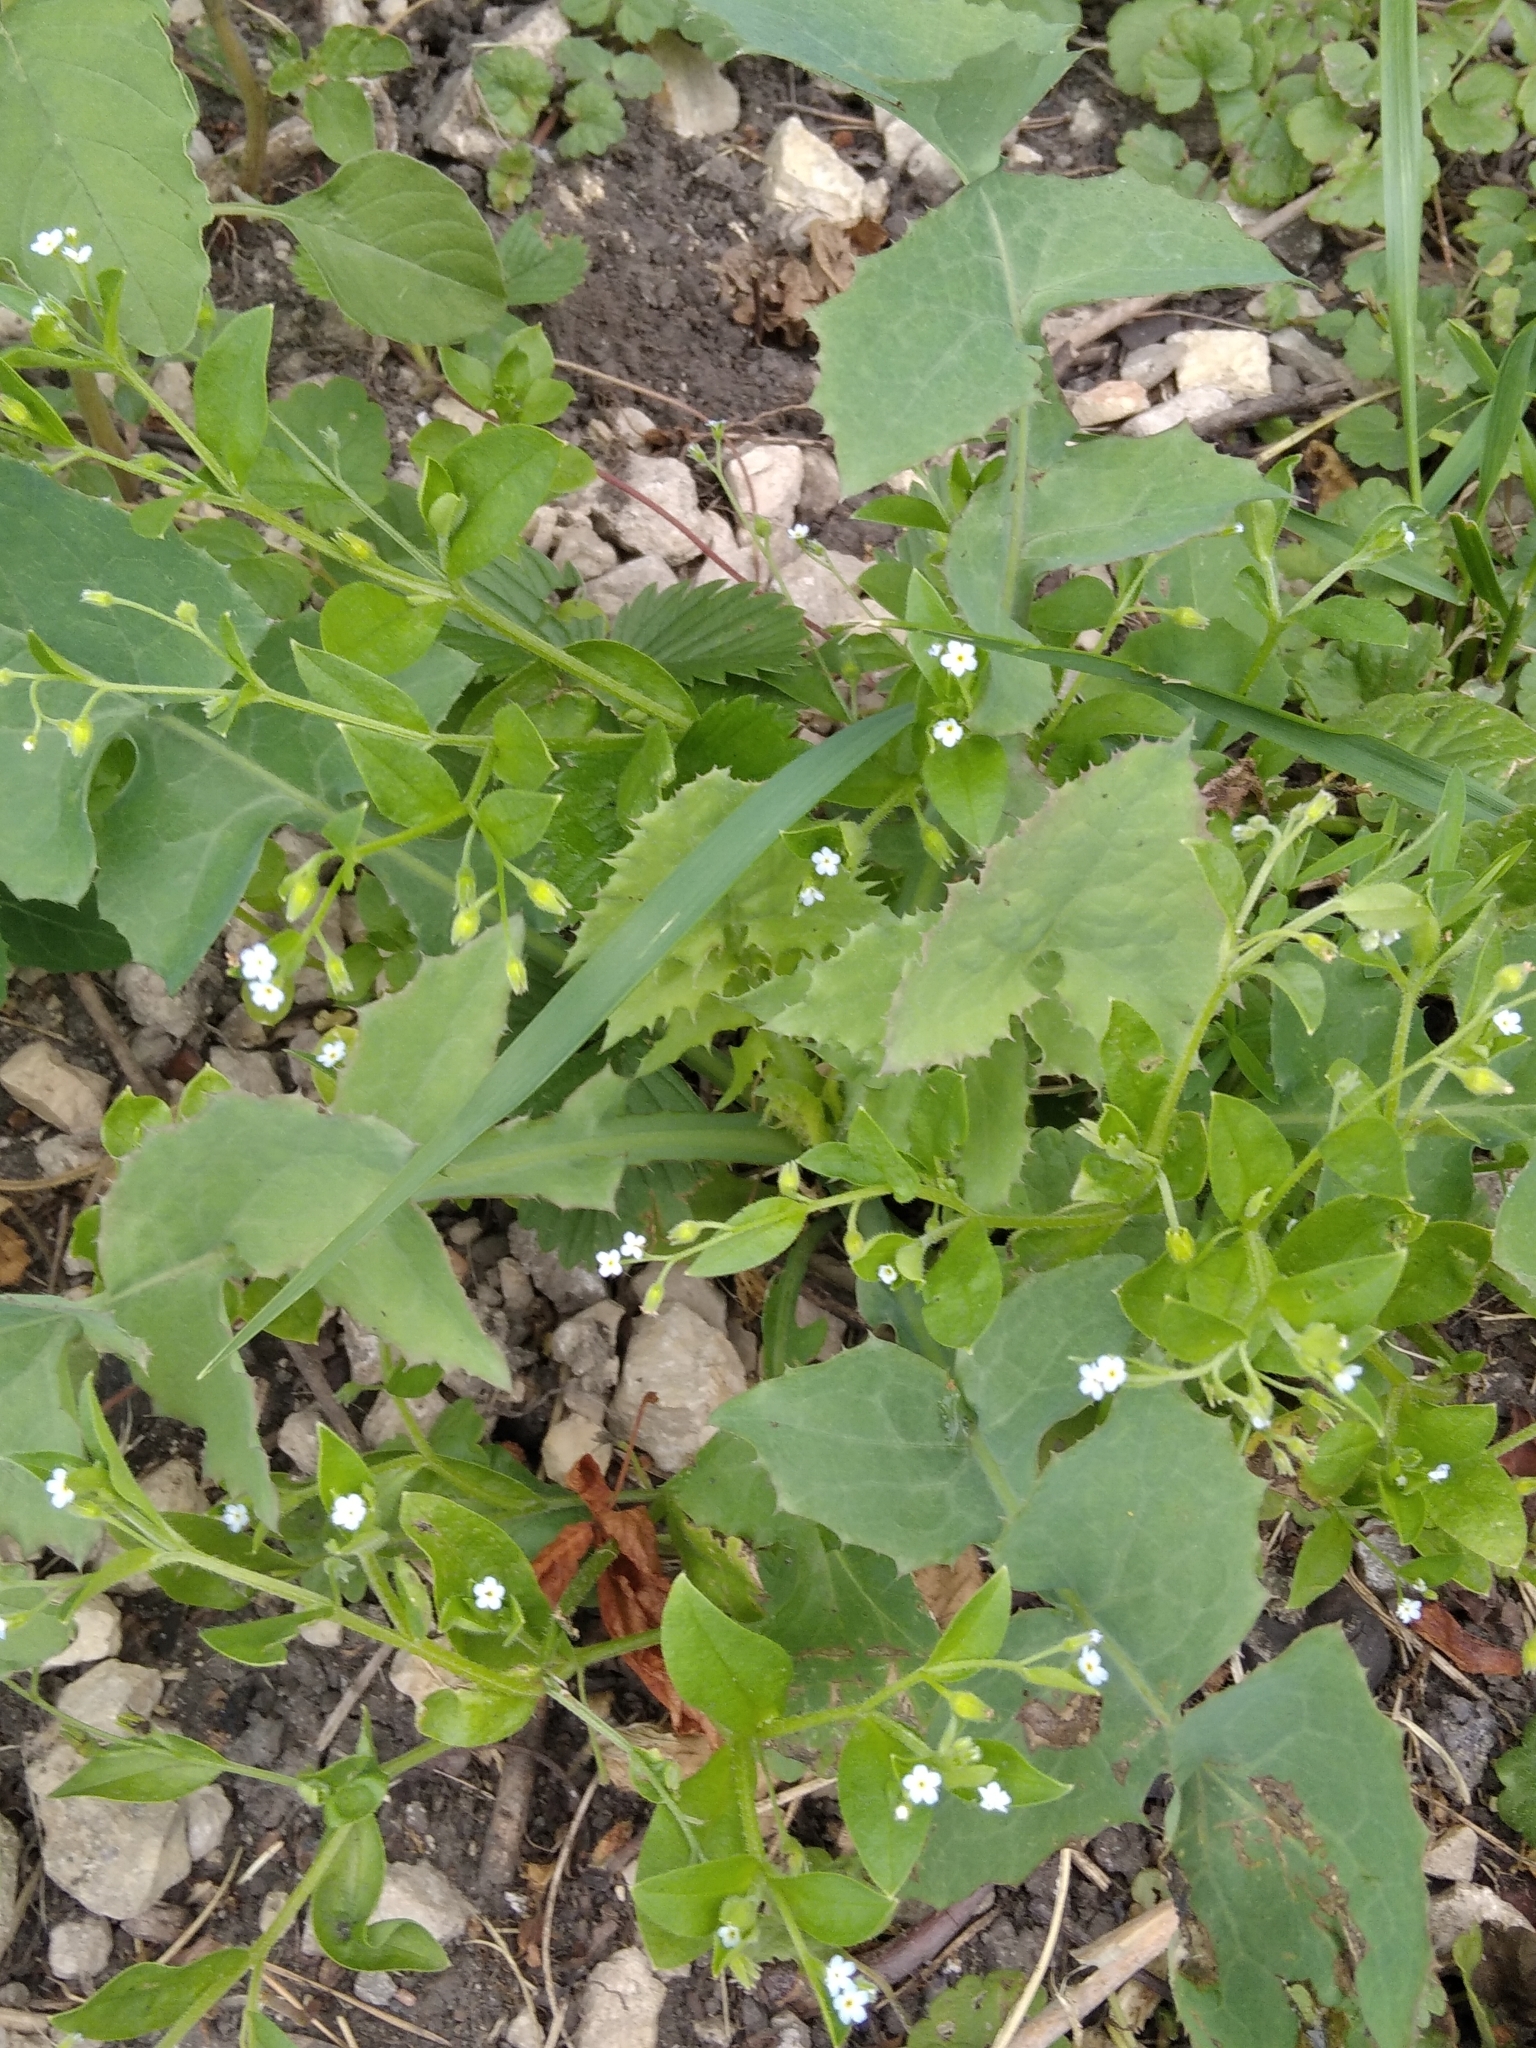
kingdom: Plantae
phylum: Tracheophyta
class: Magnoliopsida
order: Boraginales
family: Boraginaceae
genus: Myosotis
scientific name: Myosotis sparsiflora
